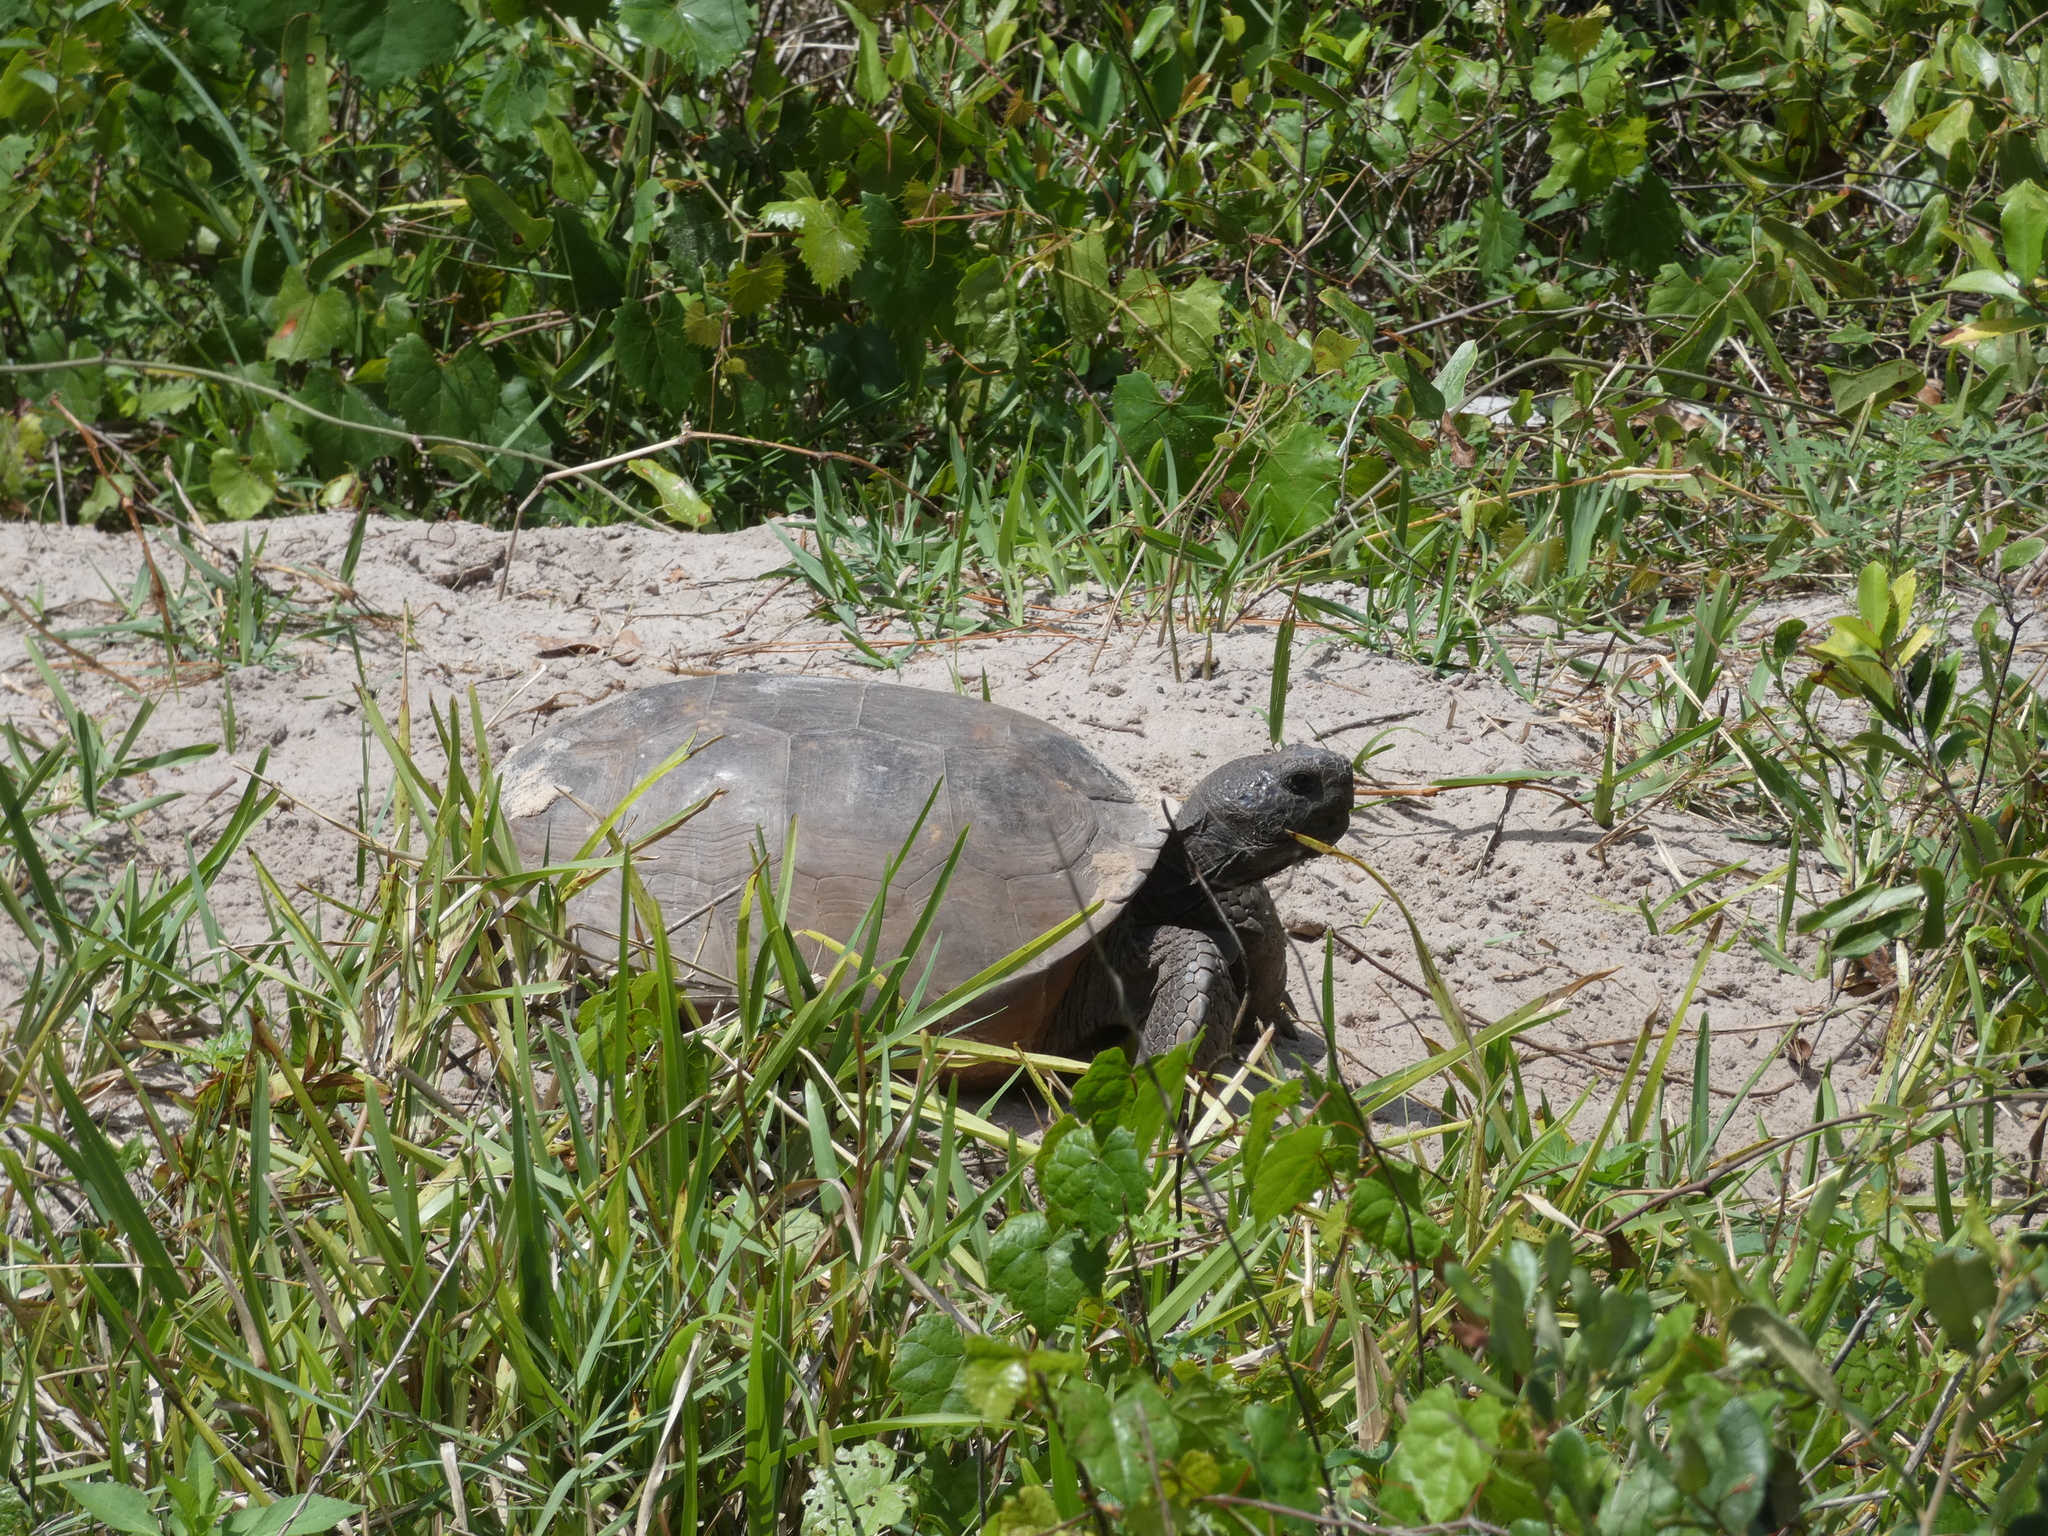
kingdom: Animalia
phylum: Chordata
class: Testudines
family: Testudinidae
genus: Gopherus
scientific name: Gopherus polyphemus
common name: Florida gopher tortoise
